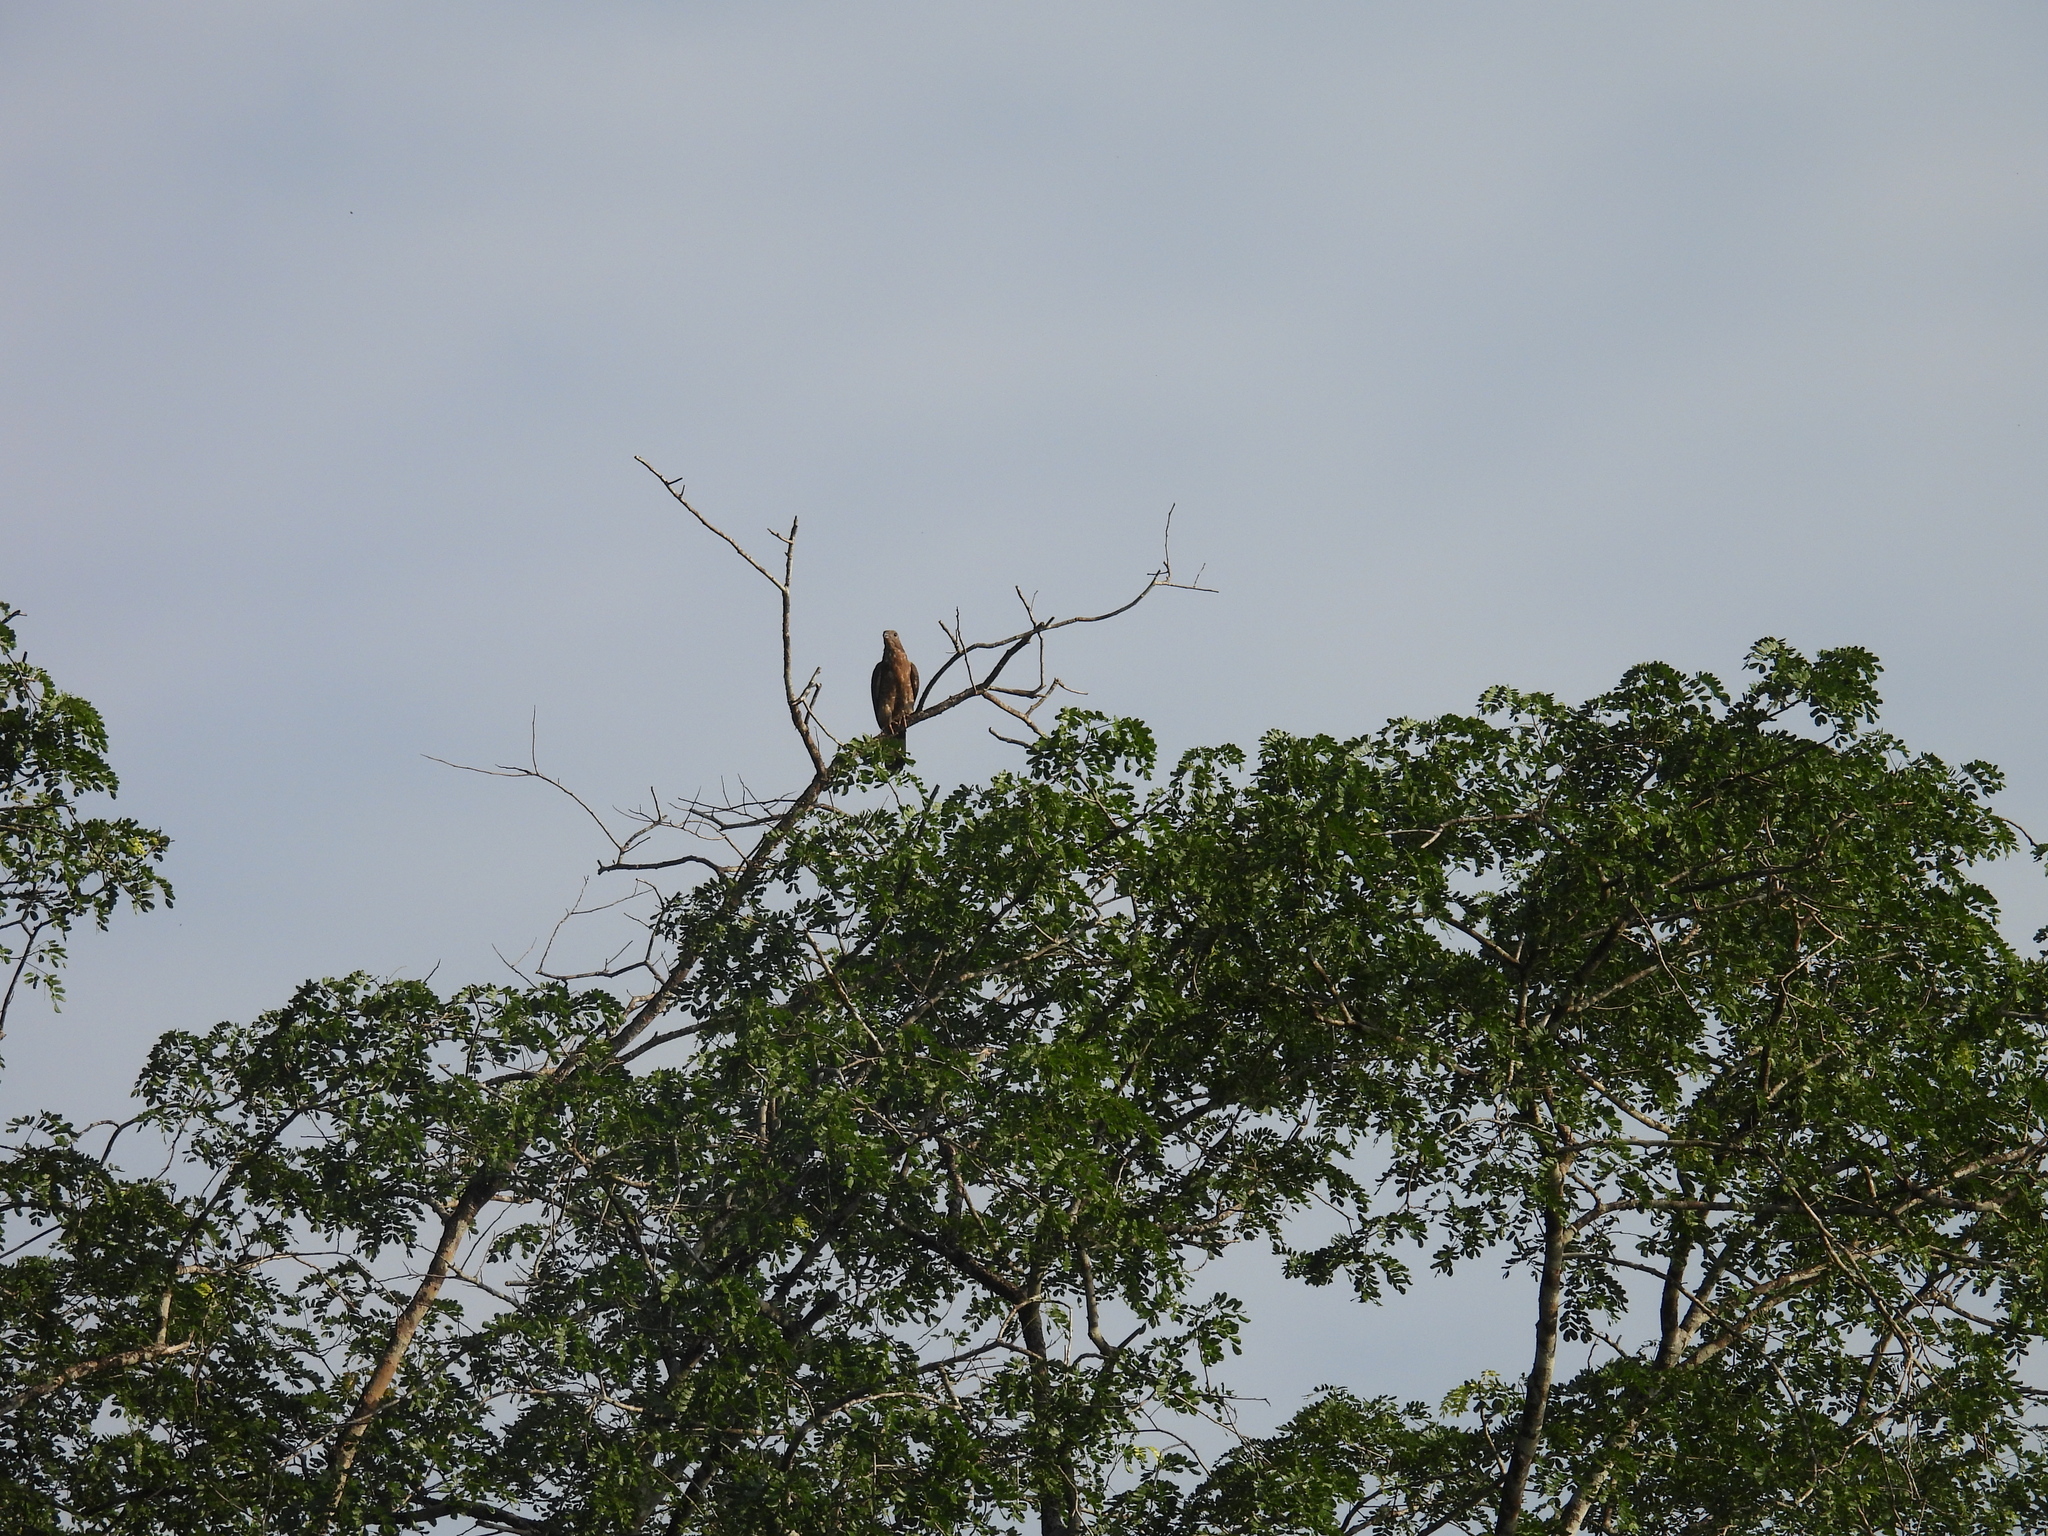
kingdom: Animalia
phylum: Chordata
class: Aves
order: Accipitriformes
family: Accipitridae
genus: Pernis
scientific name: Pernis ptilorhynchus
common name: Crested honey buzzard
